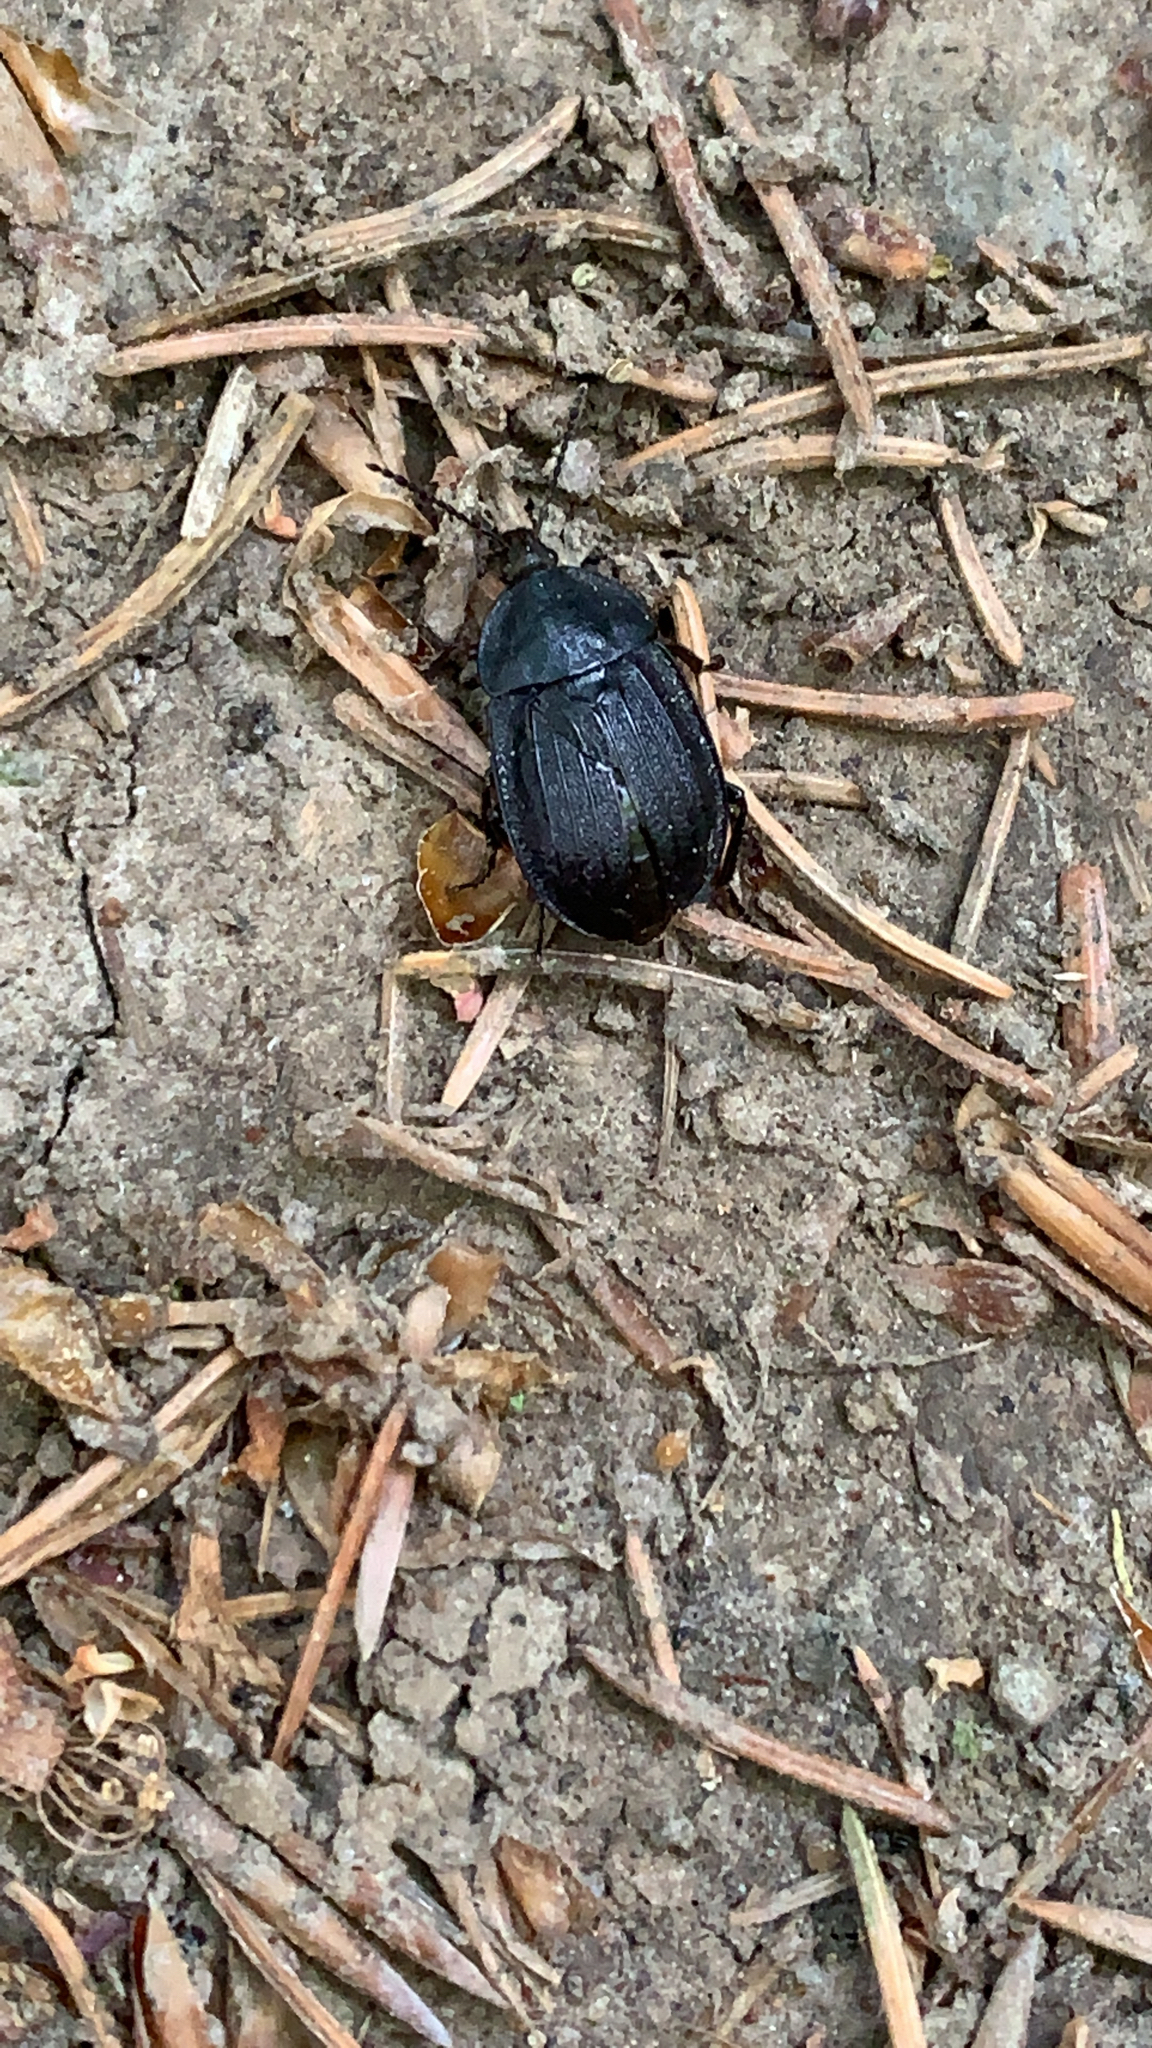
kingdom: Animalia
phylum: Arthropoda
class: Insecta
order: Coleoptera
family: Staphylinidae
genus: Silpha
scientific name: Silpha atrata
